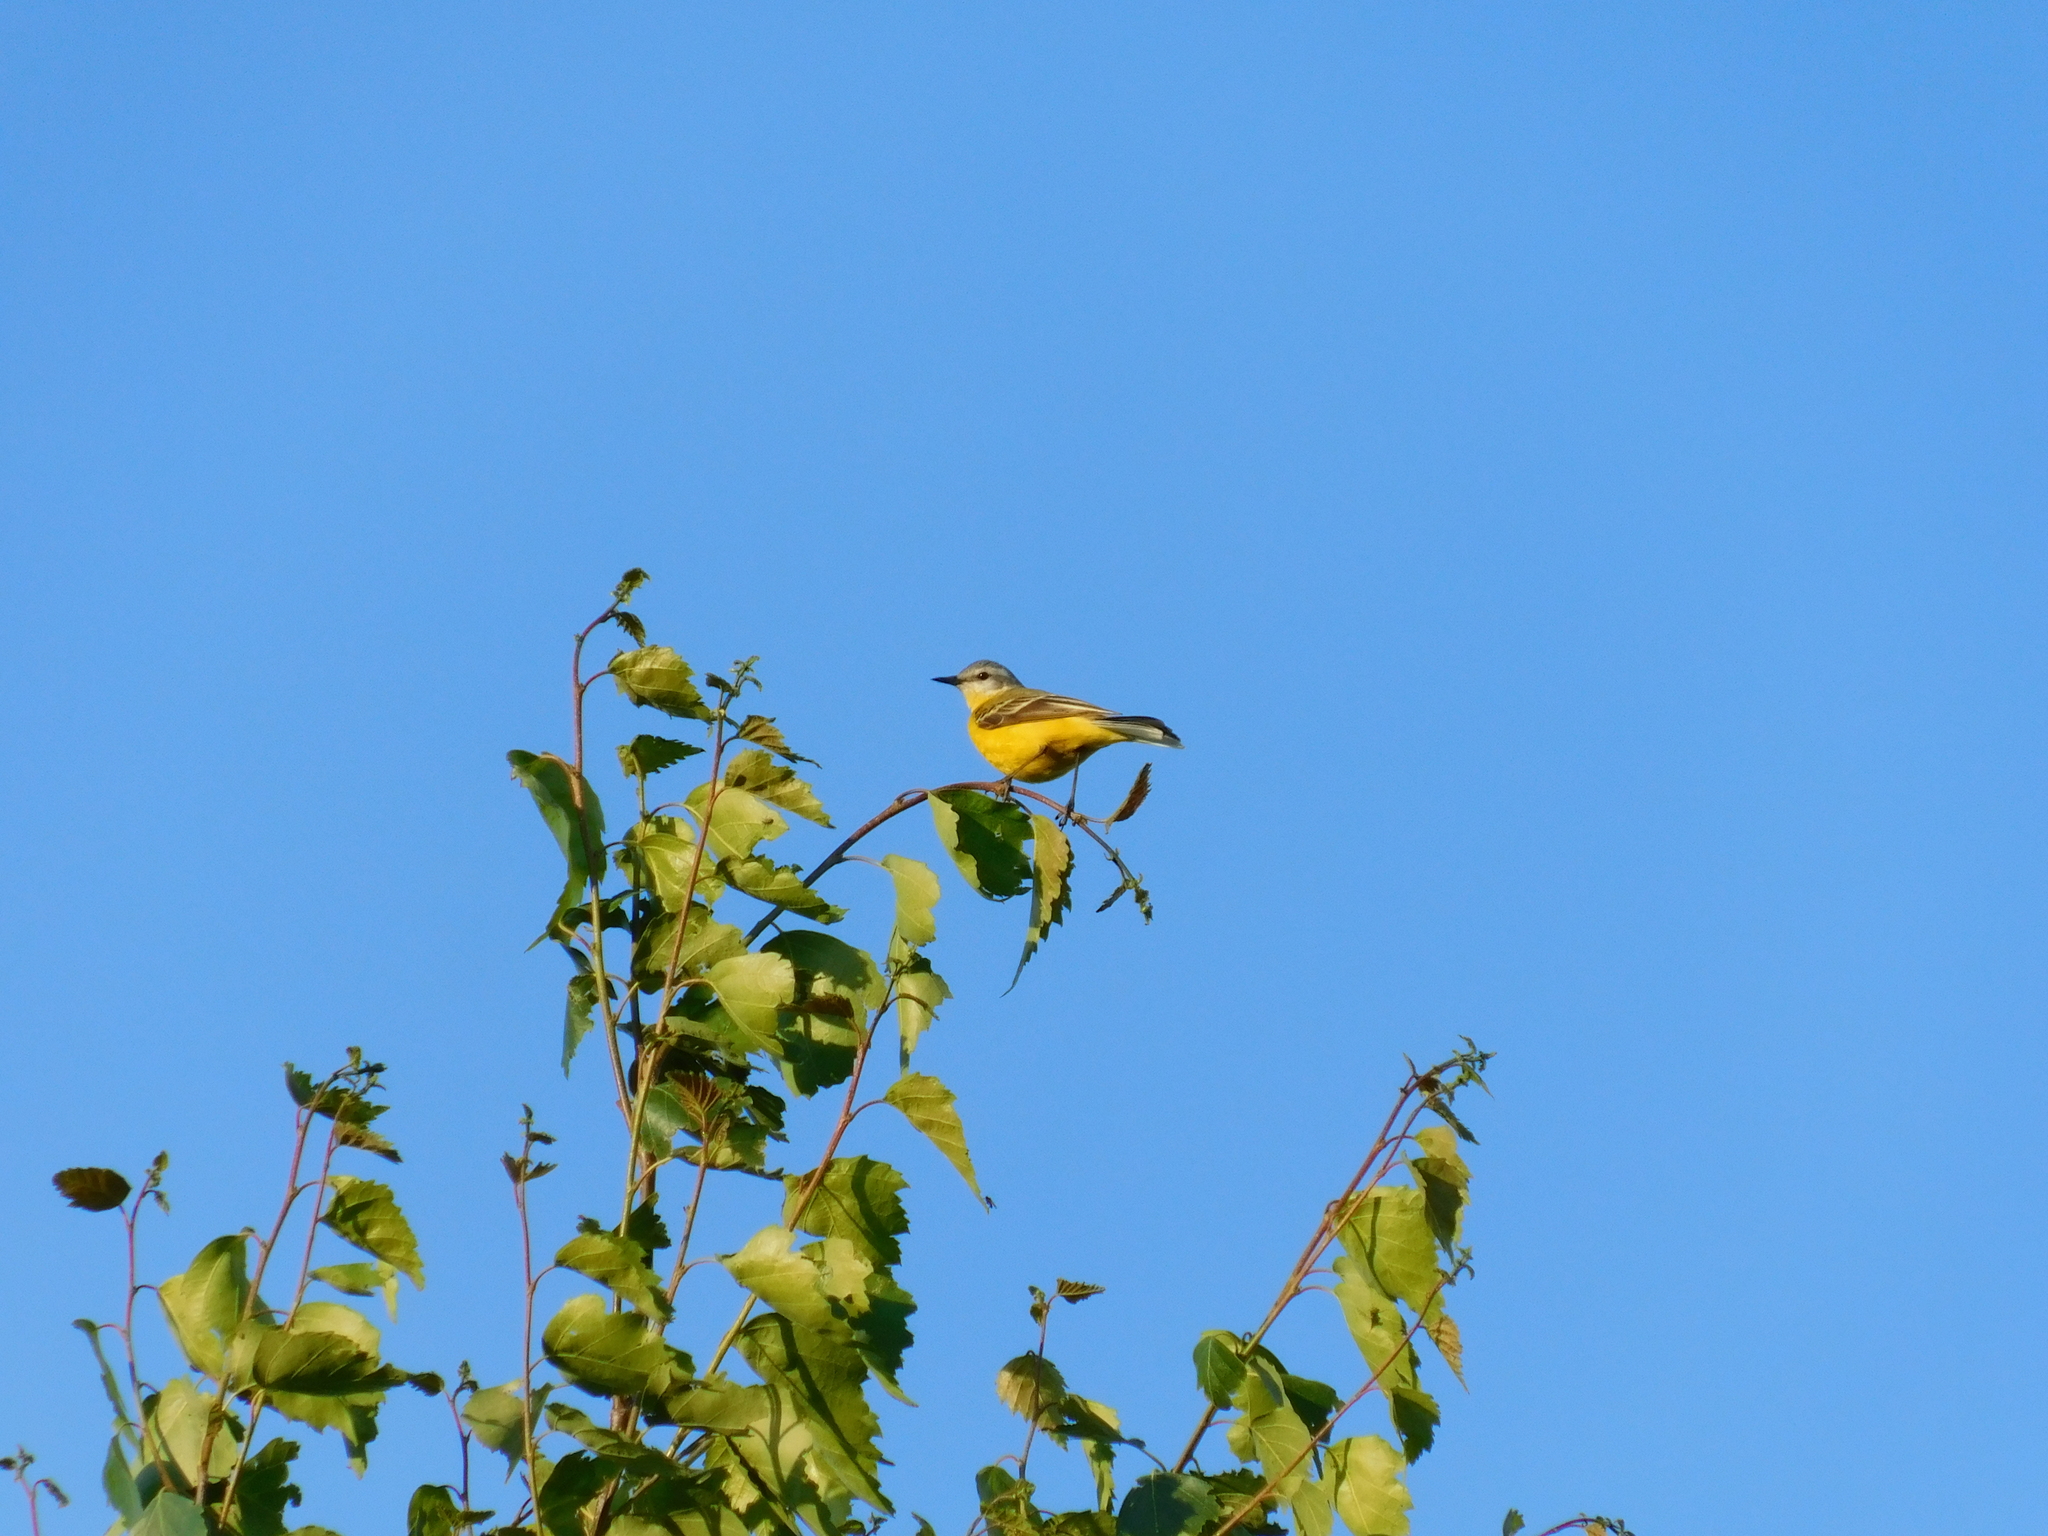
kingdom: Animalia
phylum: Chordata
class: Aves
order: Passeriformes
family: Motacillidae
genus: Motacilla
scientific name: Motacilla flava
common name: Western yellow wagtail
